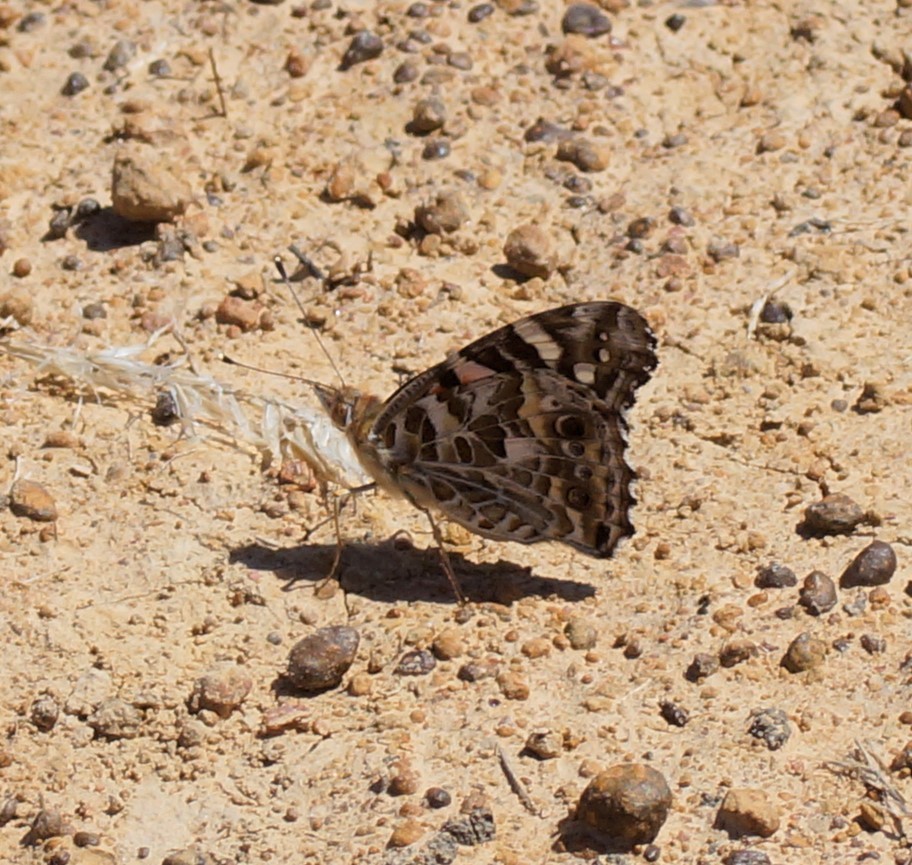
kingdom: Animalia
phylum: Arthropoda
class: Insecta
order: Lepidoptera
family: Nymphalidae
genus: Vanessa
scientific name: Vanessa kershawi
